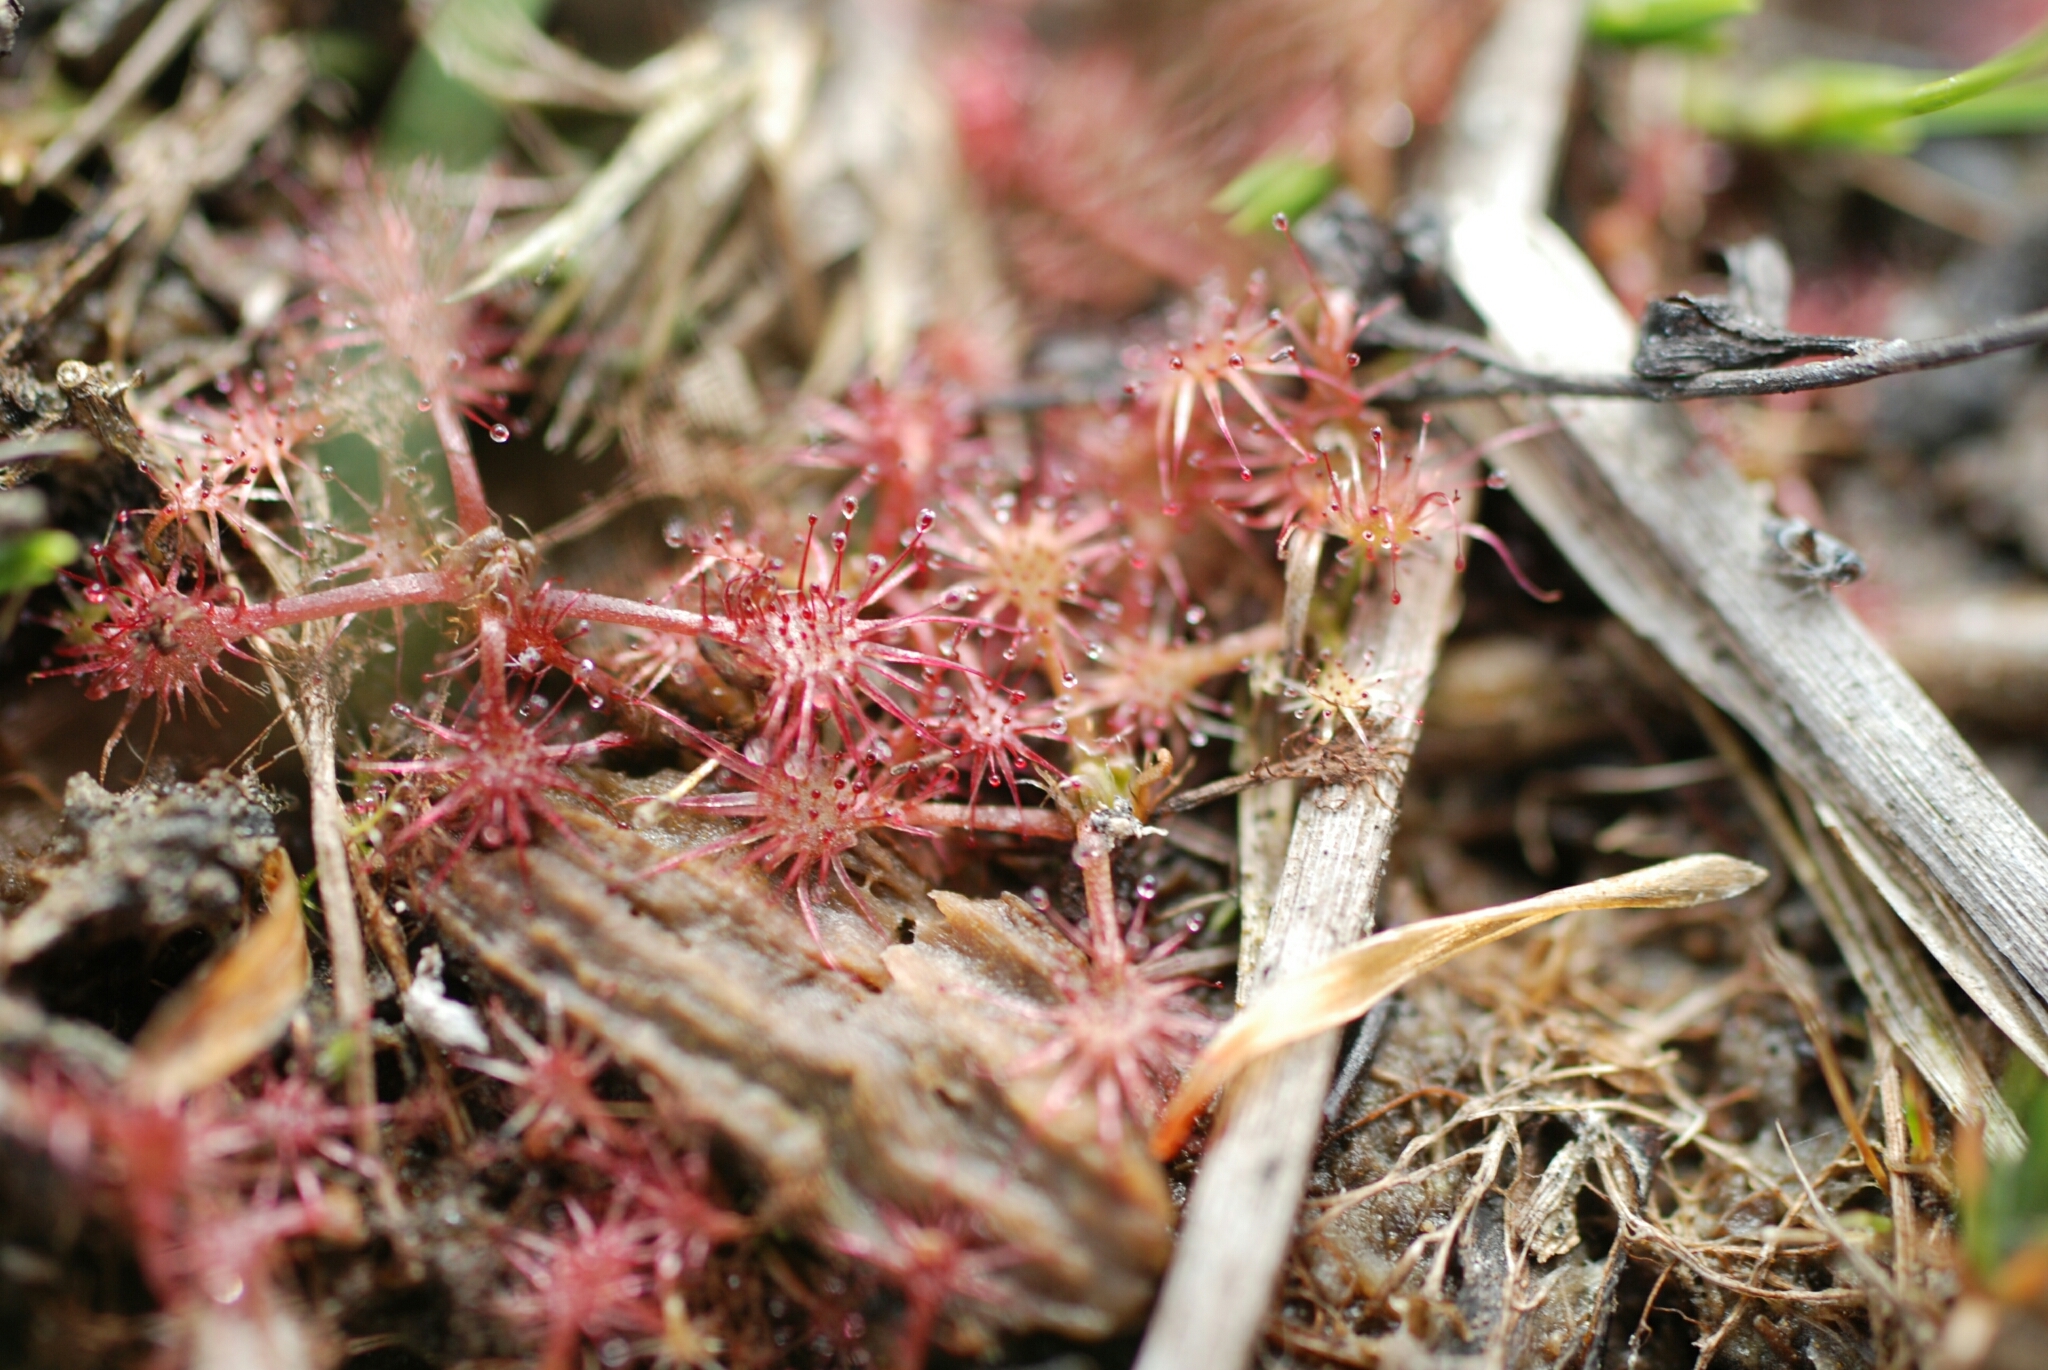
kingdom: Plantae
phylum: Tracheophyta
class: Magnoliopsida
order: Caryophyllales
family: Droseraceae
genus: Drosera
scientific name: Drosera intermedia
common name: Oblong-leaved sundew
